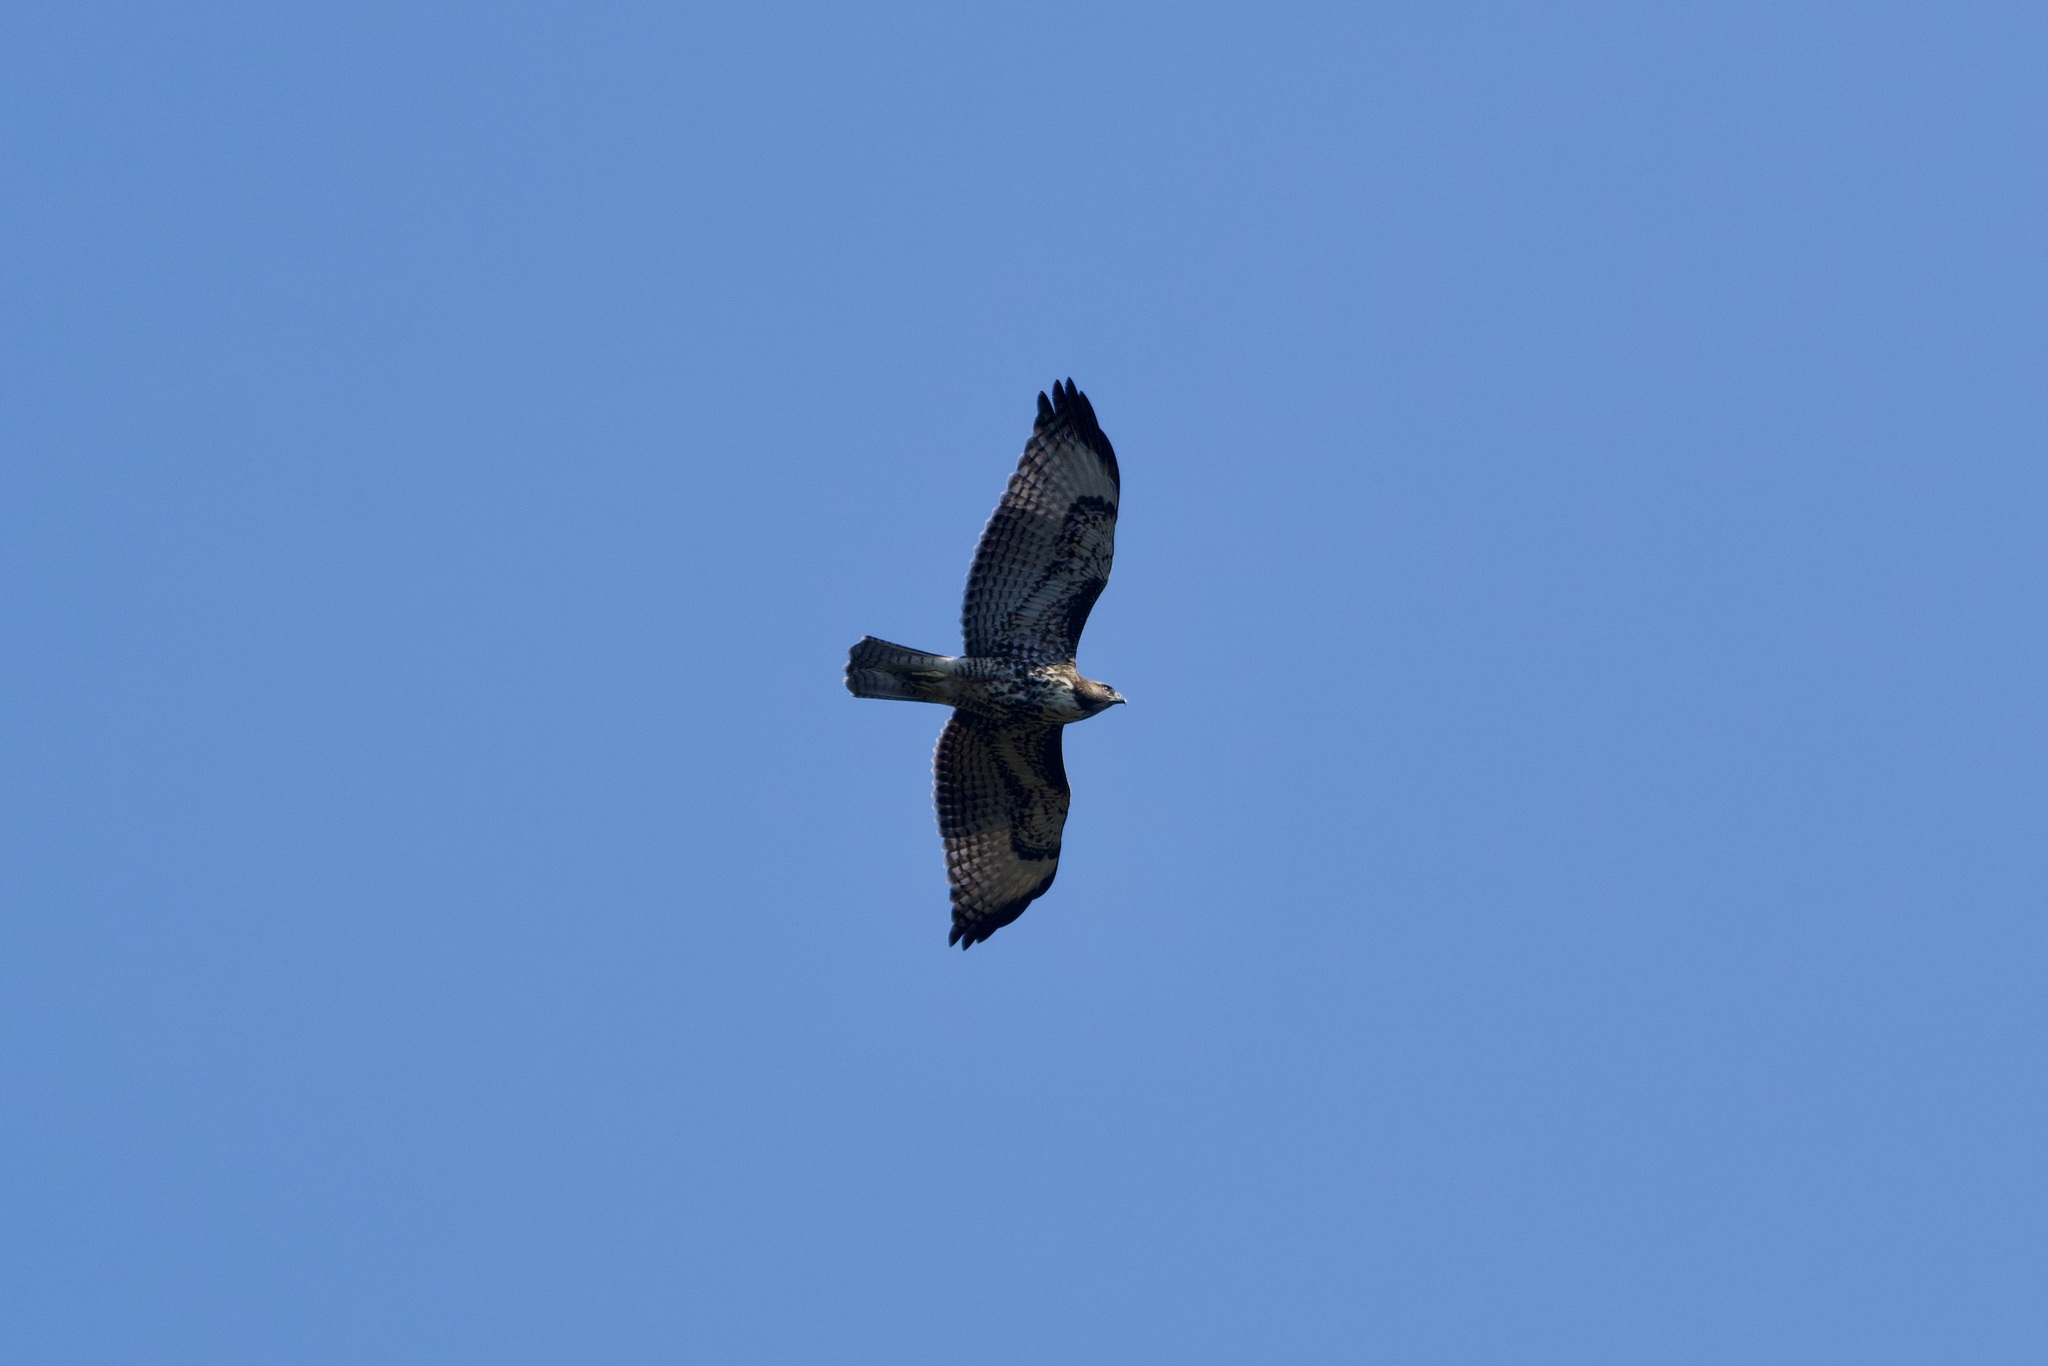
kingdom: Animalia
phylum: Chordata
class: Aves
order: Accipitriformes
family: Accipitridae
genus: Buteo
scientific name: Buteo jamaicensis
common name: Red-tailed hawk
